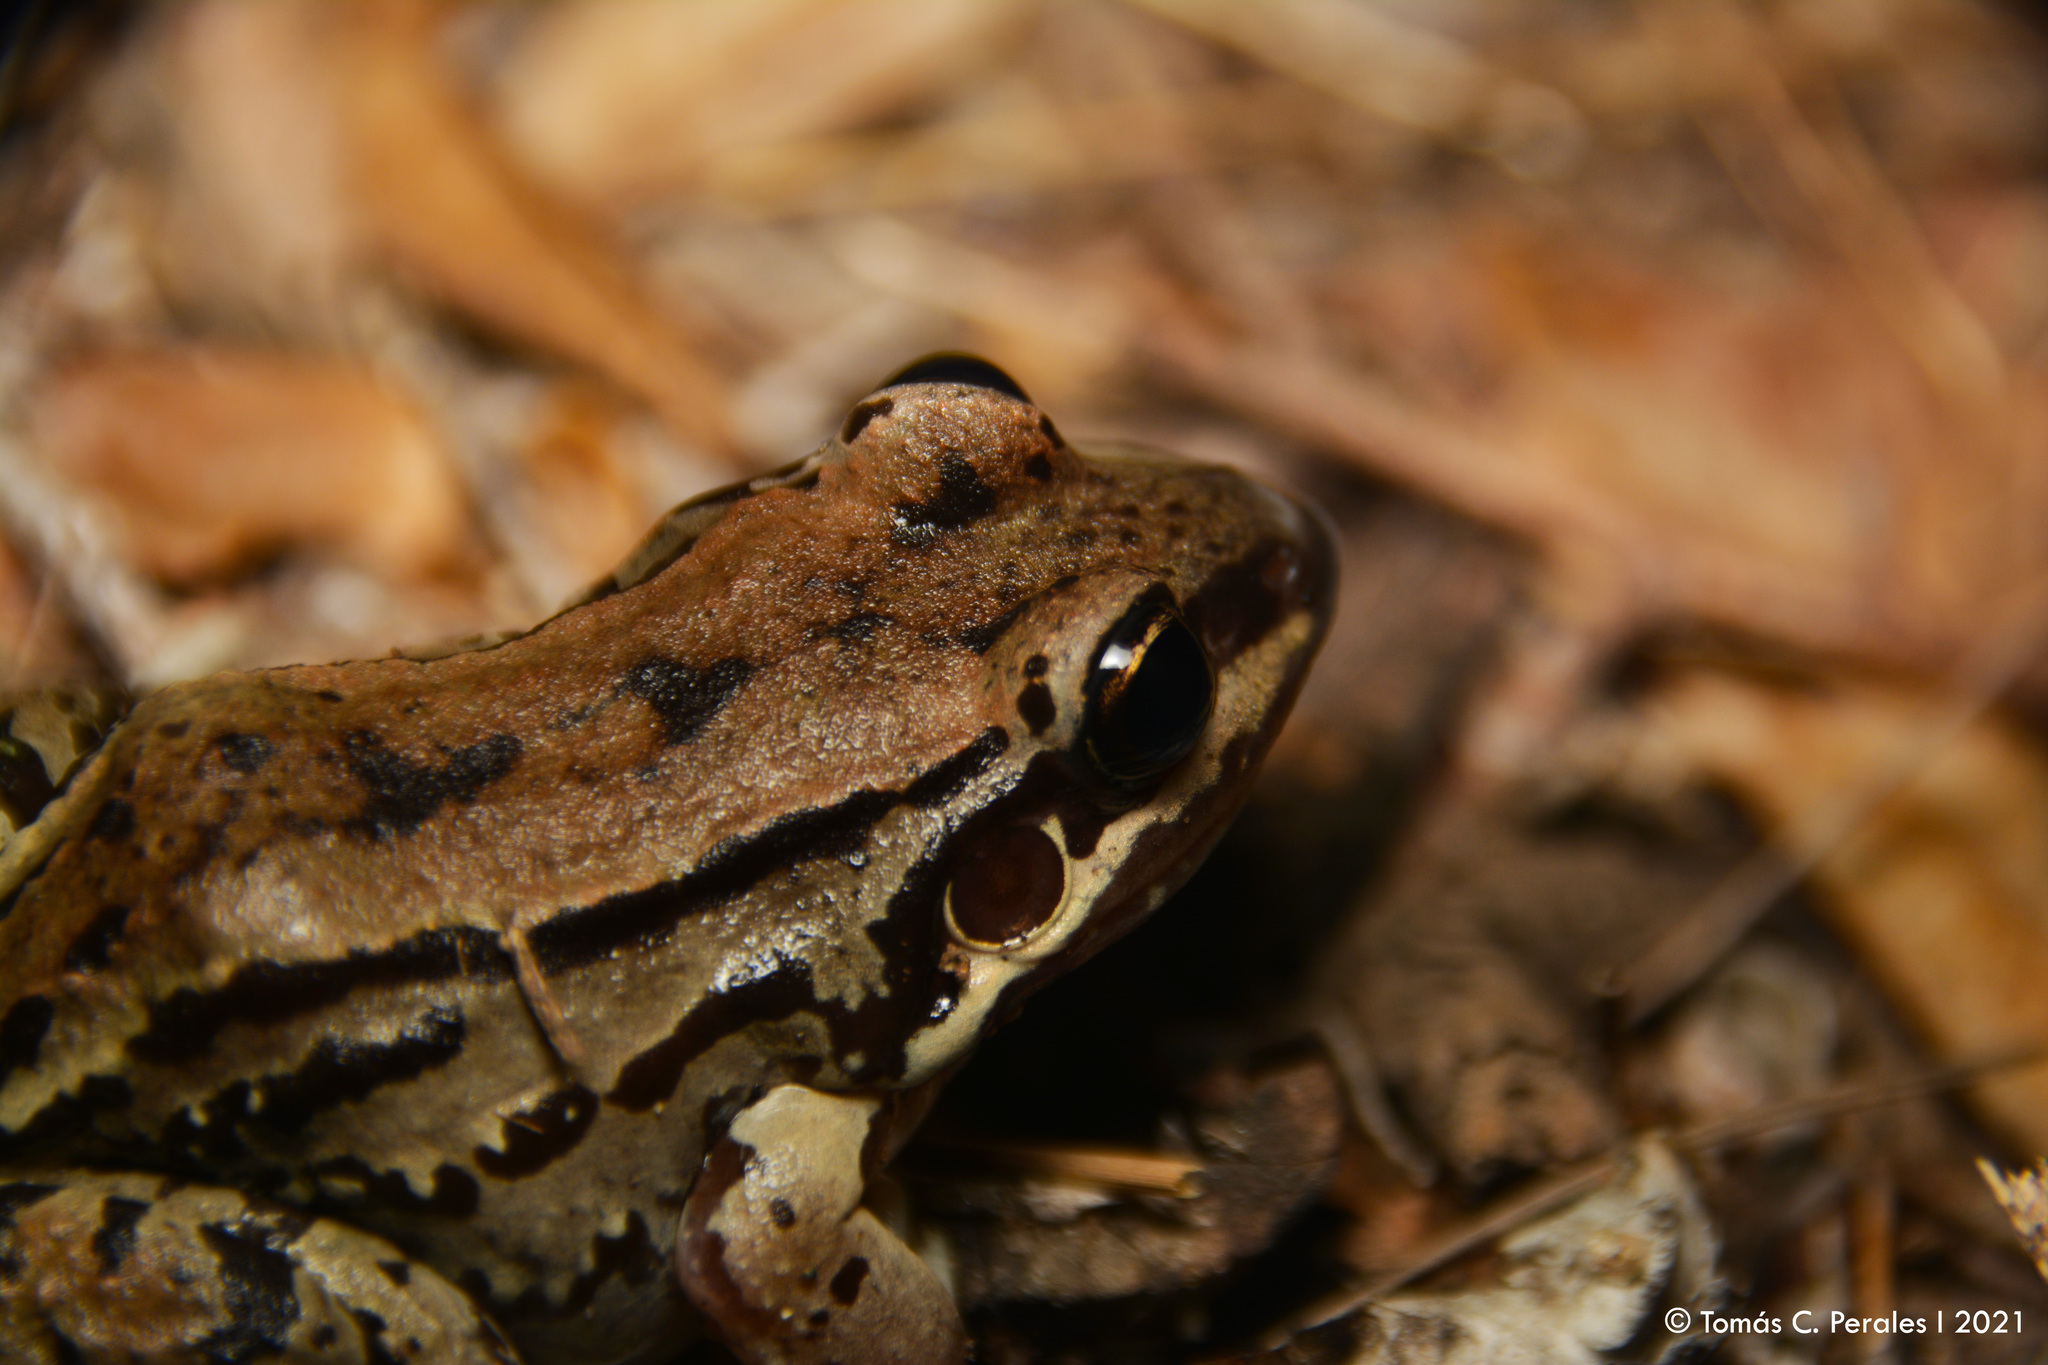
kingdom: Animalia
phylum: Chordata
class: Amphibia
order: Anura
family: Leptodactylidae
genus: Leptodactylus
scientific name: Leptodactylus mystacinus
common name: Moustached frog
